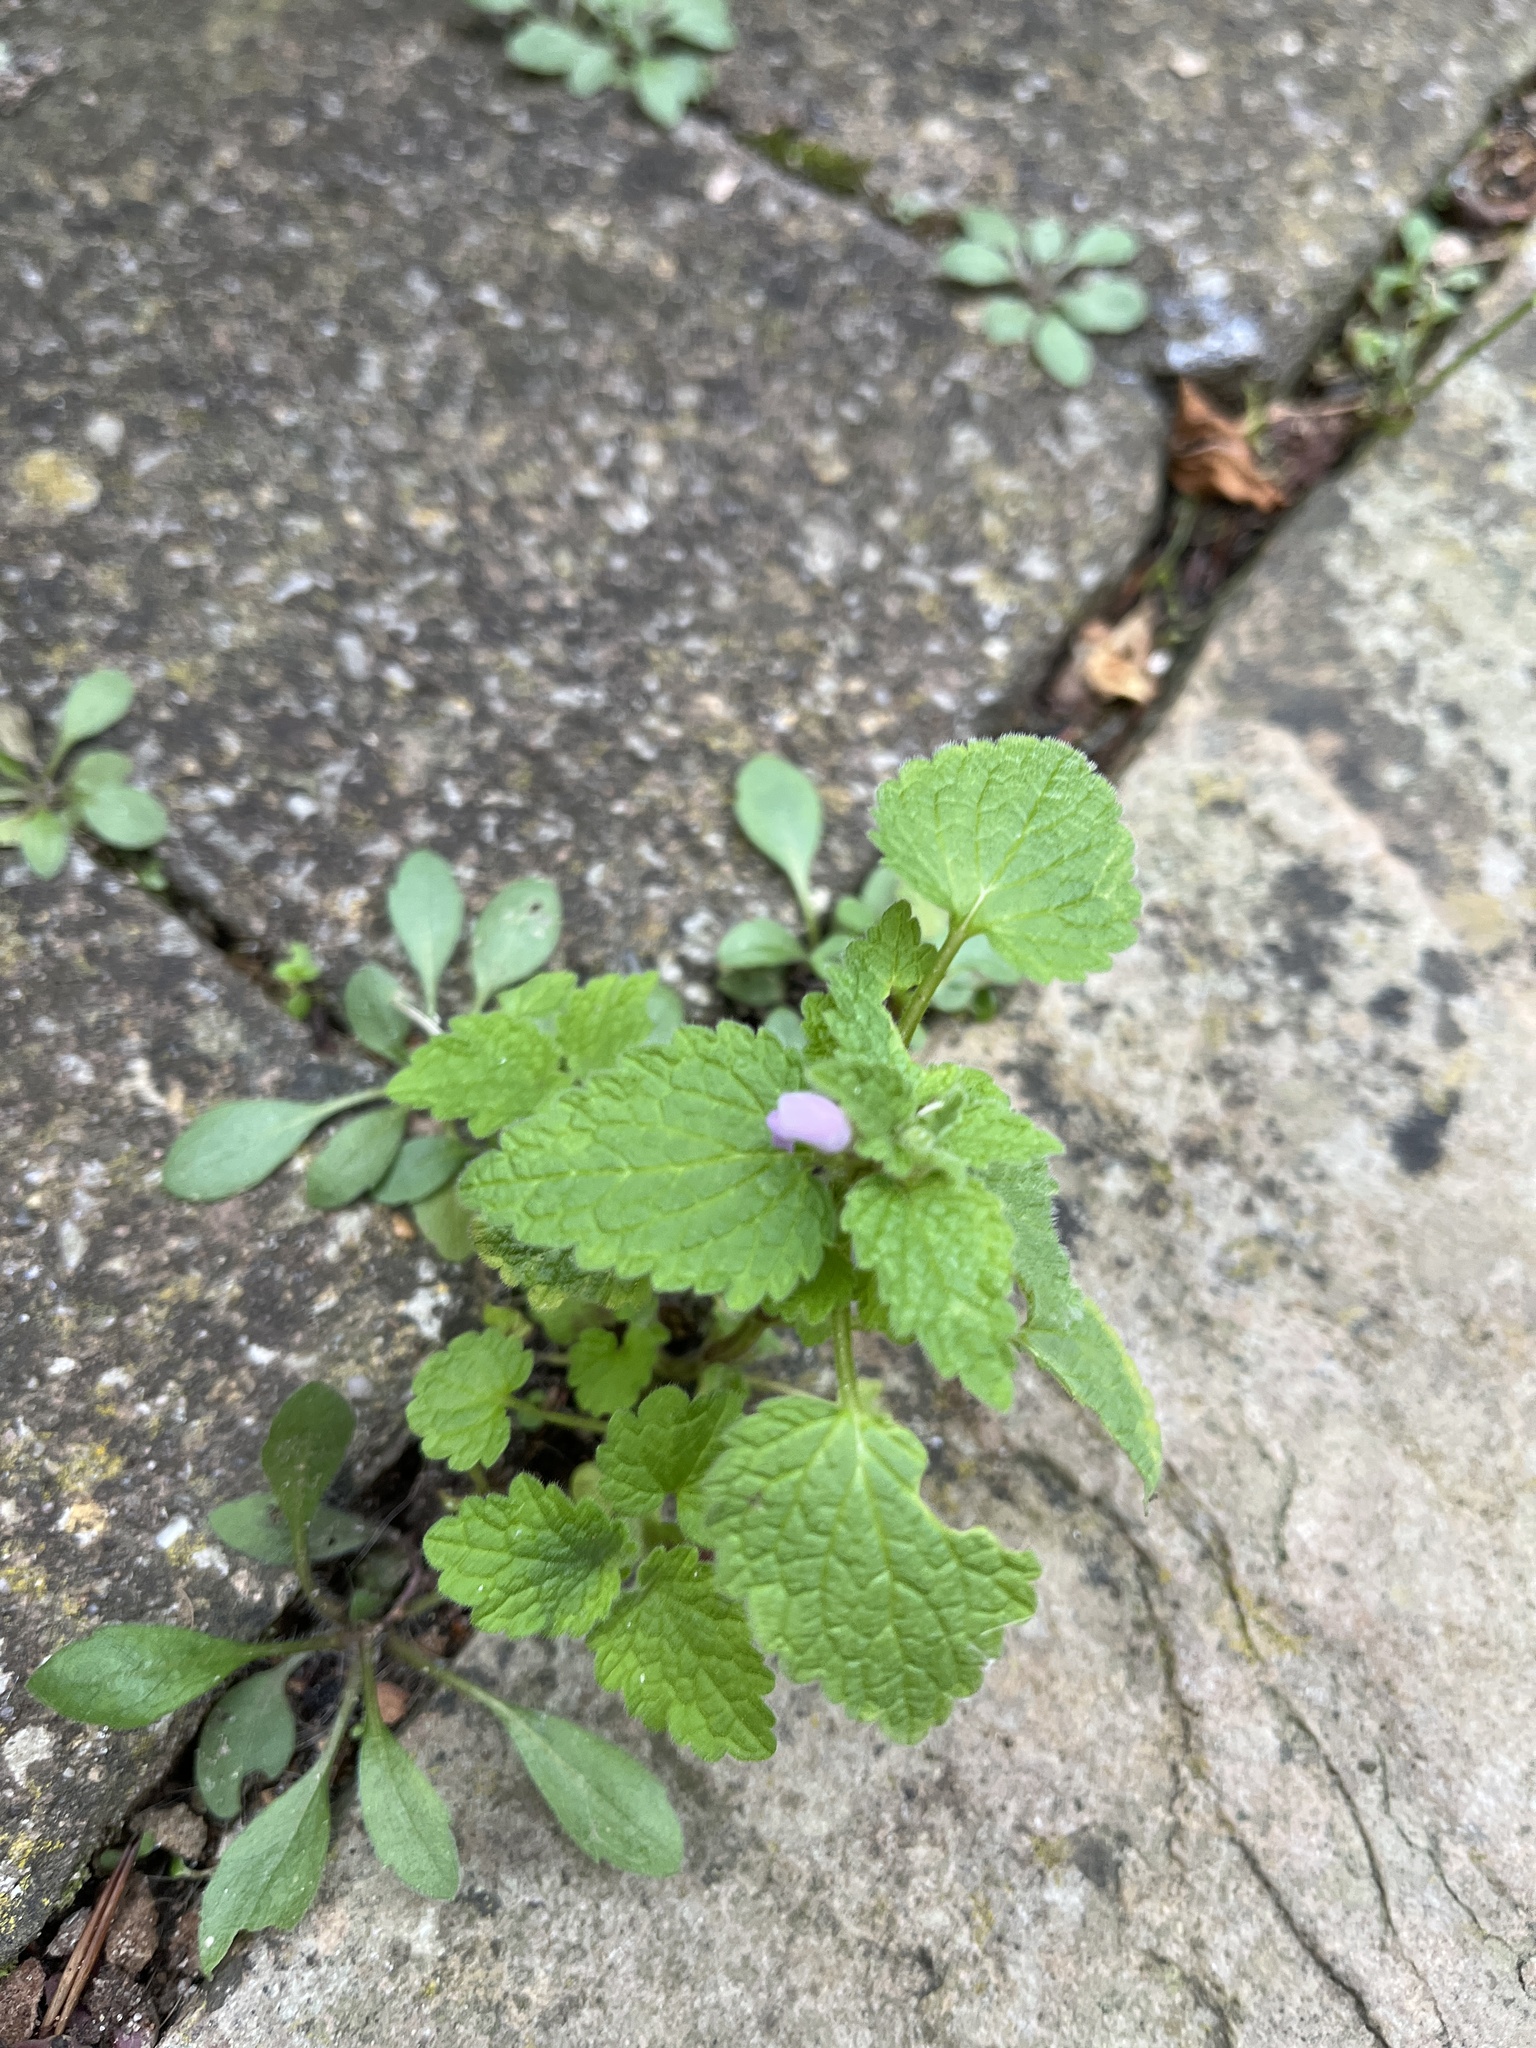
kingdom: Plantae
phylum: Tracheophyta
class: Magnoliopsida
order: Lamiales
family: Lamiaceae
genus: Lamium
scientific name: Lamium purpureum
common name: Red dead-nettle
